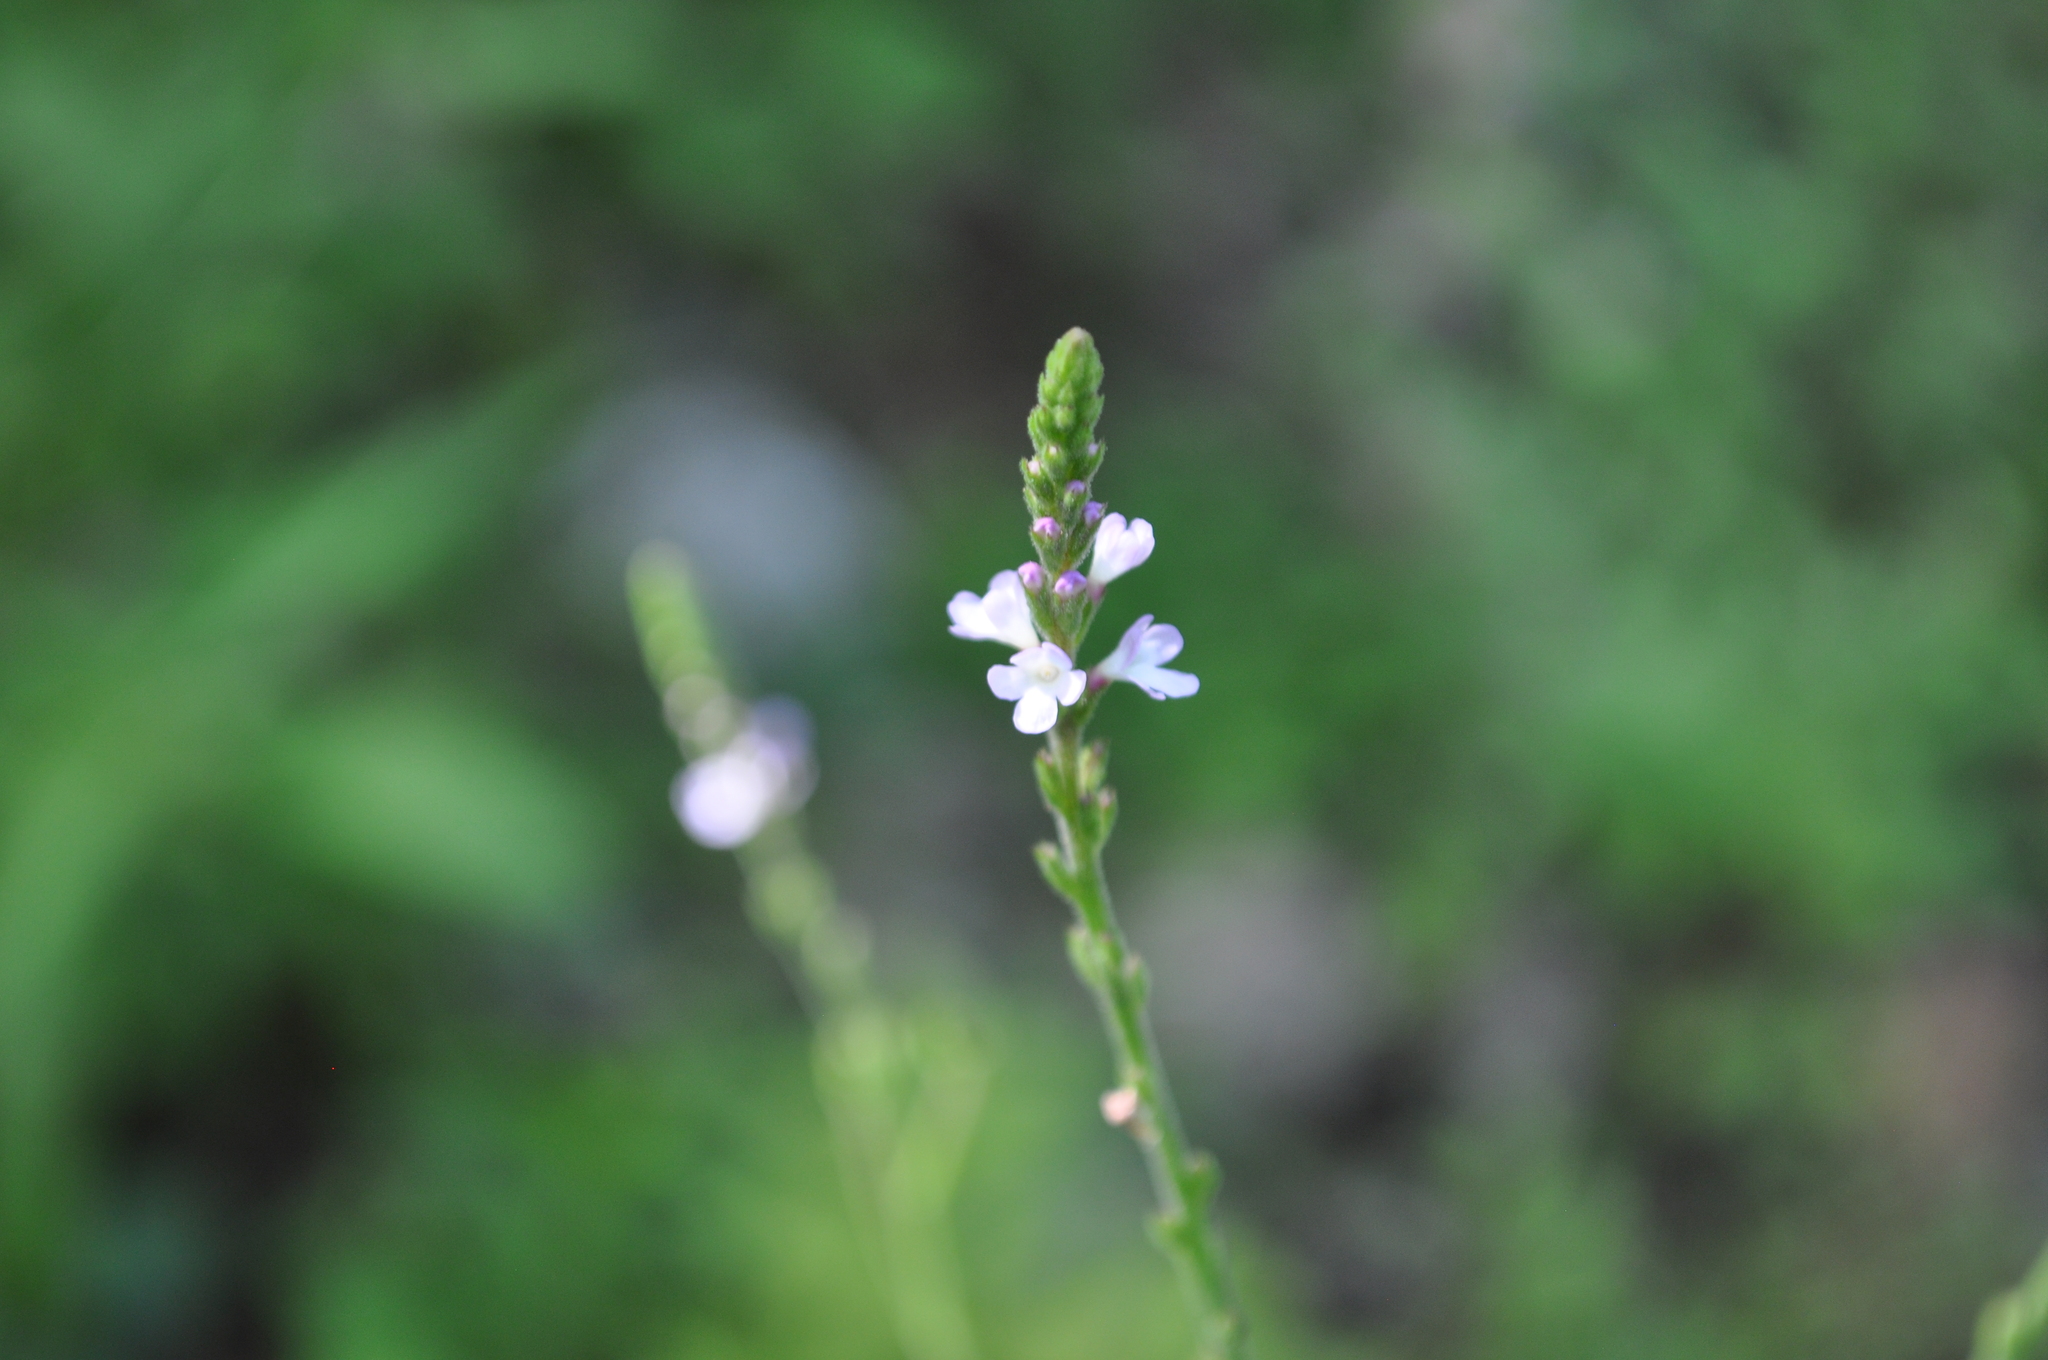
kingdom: Plantae
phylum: Tracheophyta
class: Magnoliopsida
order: Lamiales
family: Verbenaceae
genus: Verbena
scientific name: Verbena officinalis
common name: Vervain
